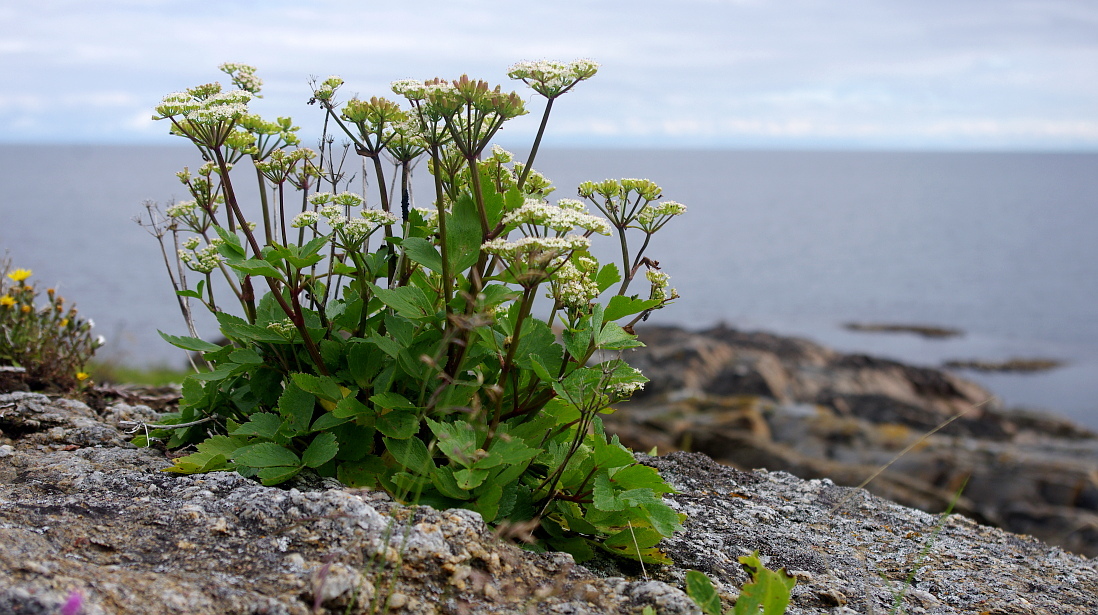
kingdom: Plantae
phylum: Tracheophyta
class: Magnoliopsida
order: Apiales
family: Apiaceae
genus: Ligusticum
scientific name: Ligusticum scothicum
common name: Beach lovage
